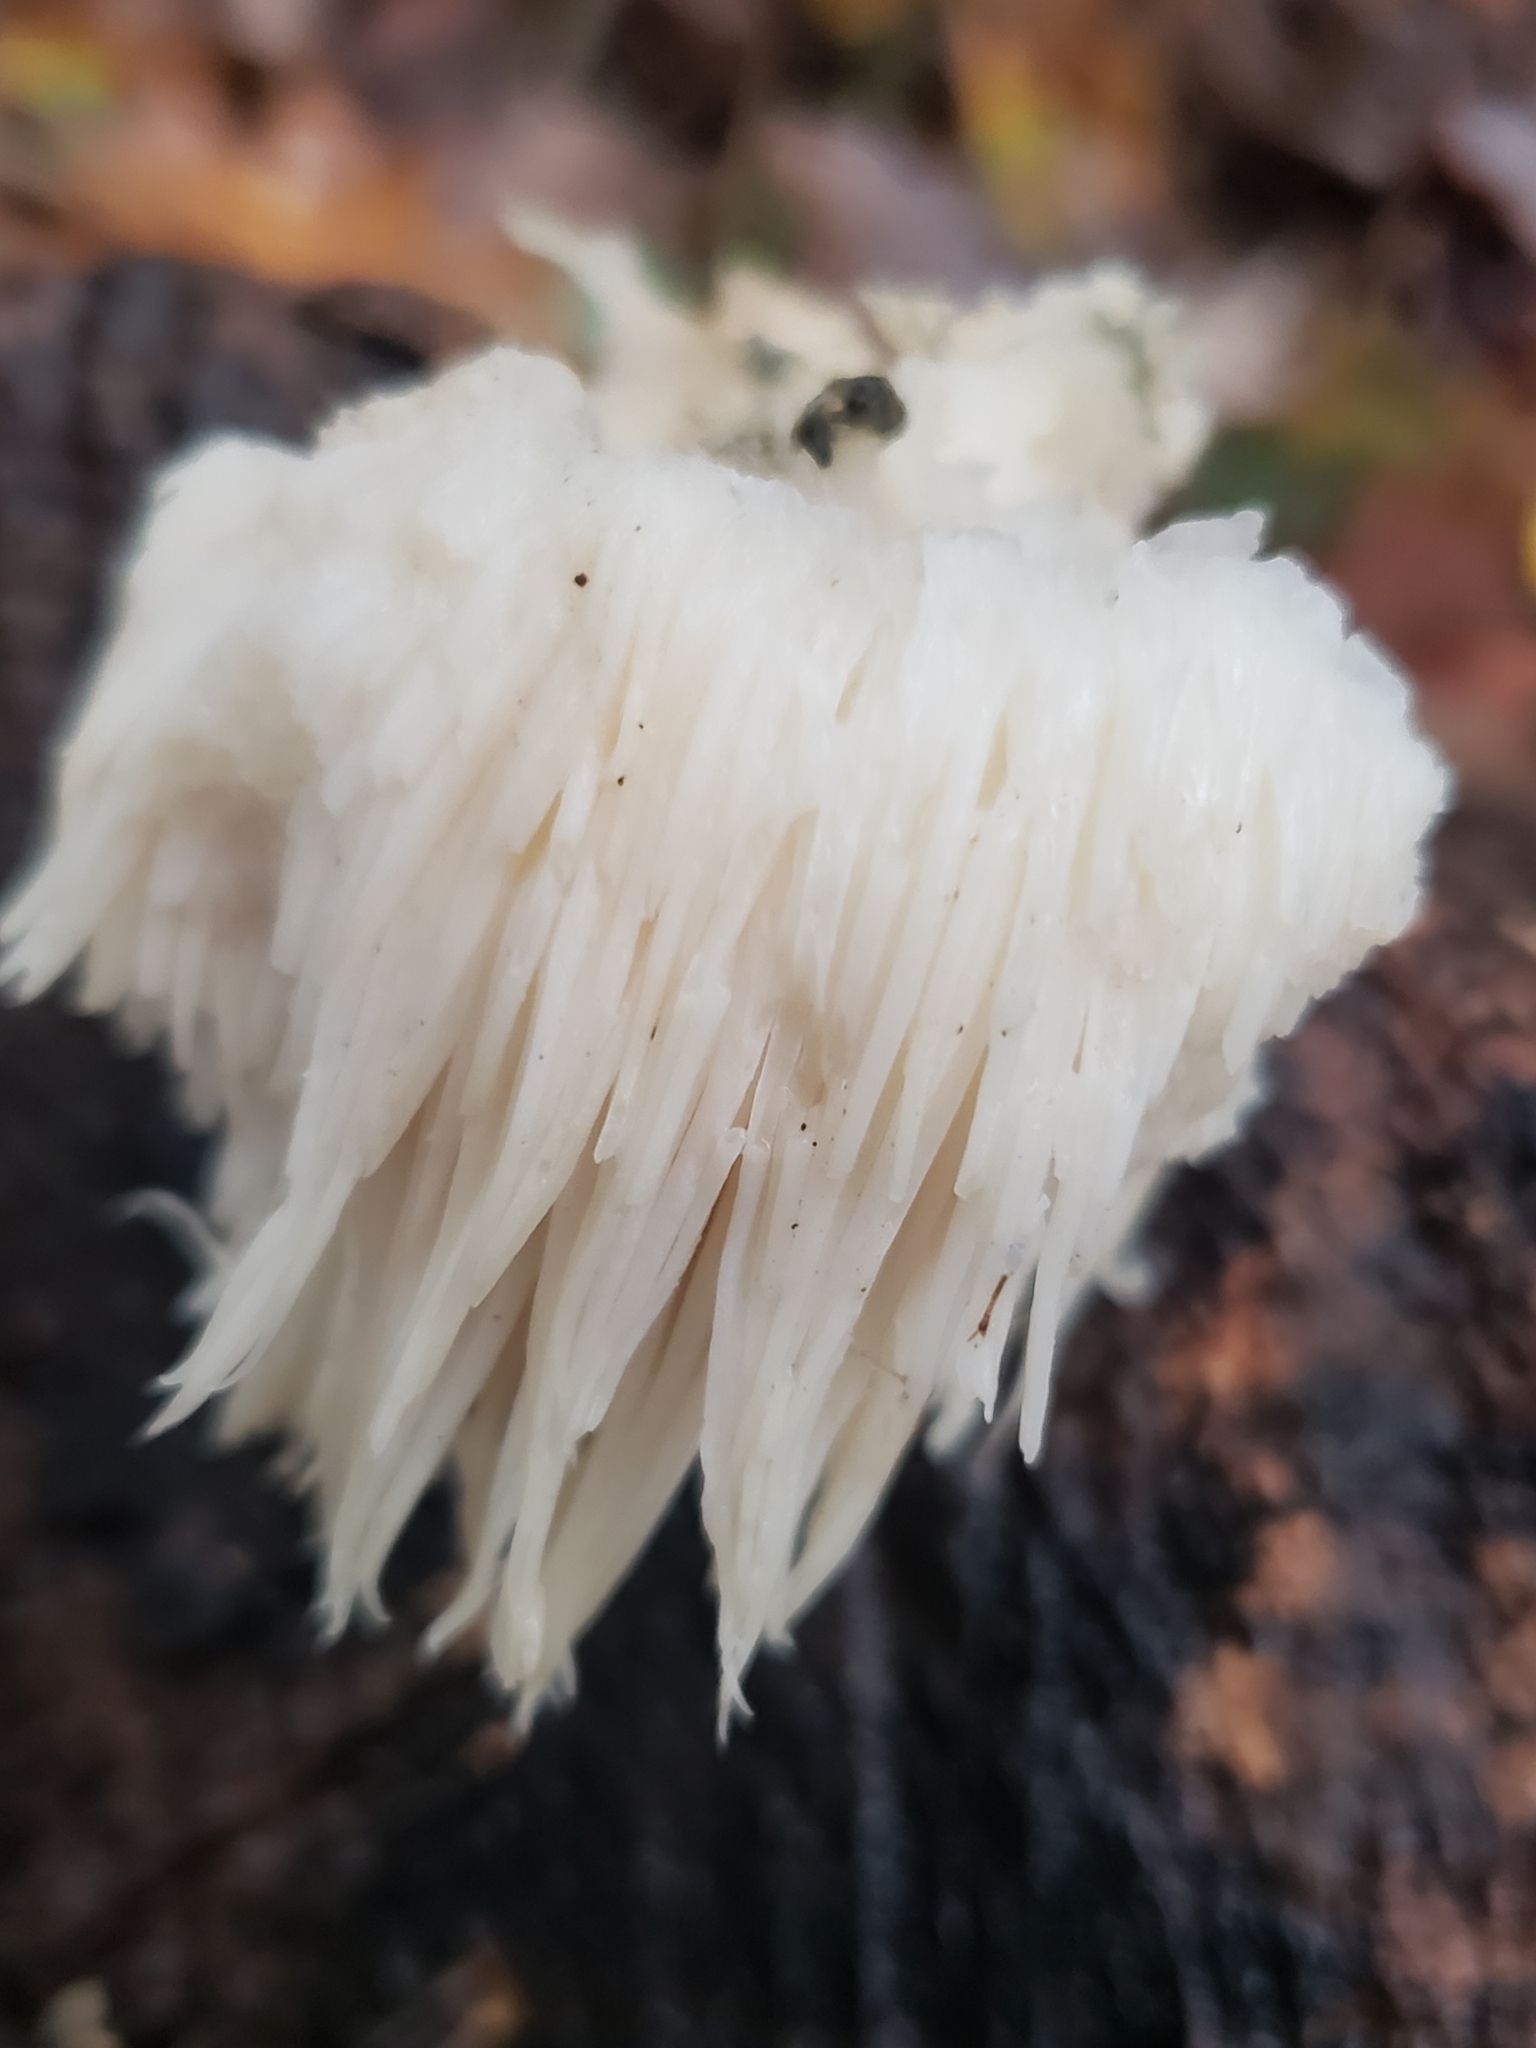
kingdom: Fungi
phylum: Basidiomycota
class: Agaricomycetes
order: Russulales
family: Hericiaceae
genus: Hericium
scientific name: Hericium americanum
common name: Bear's head tooth
